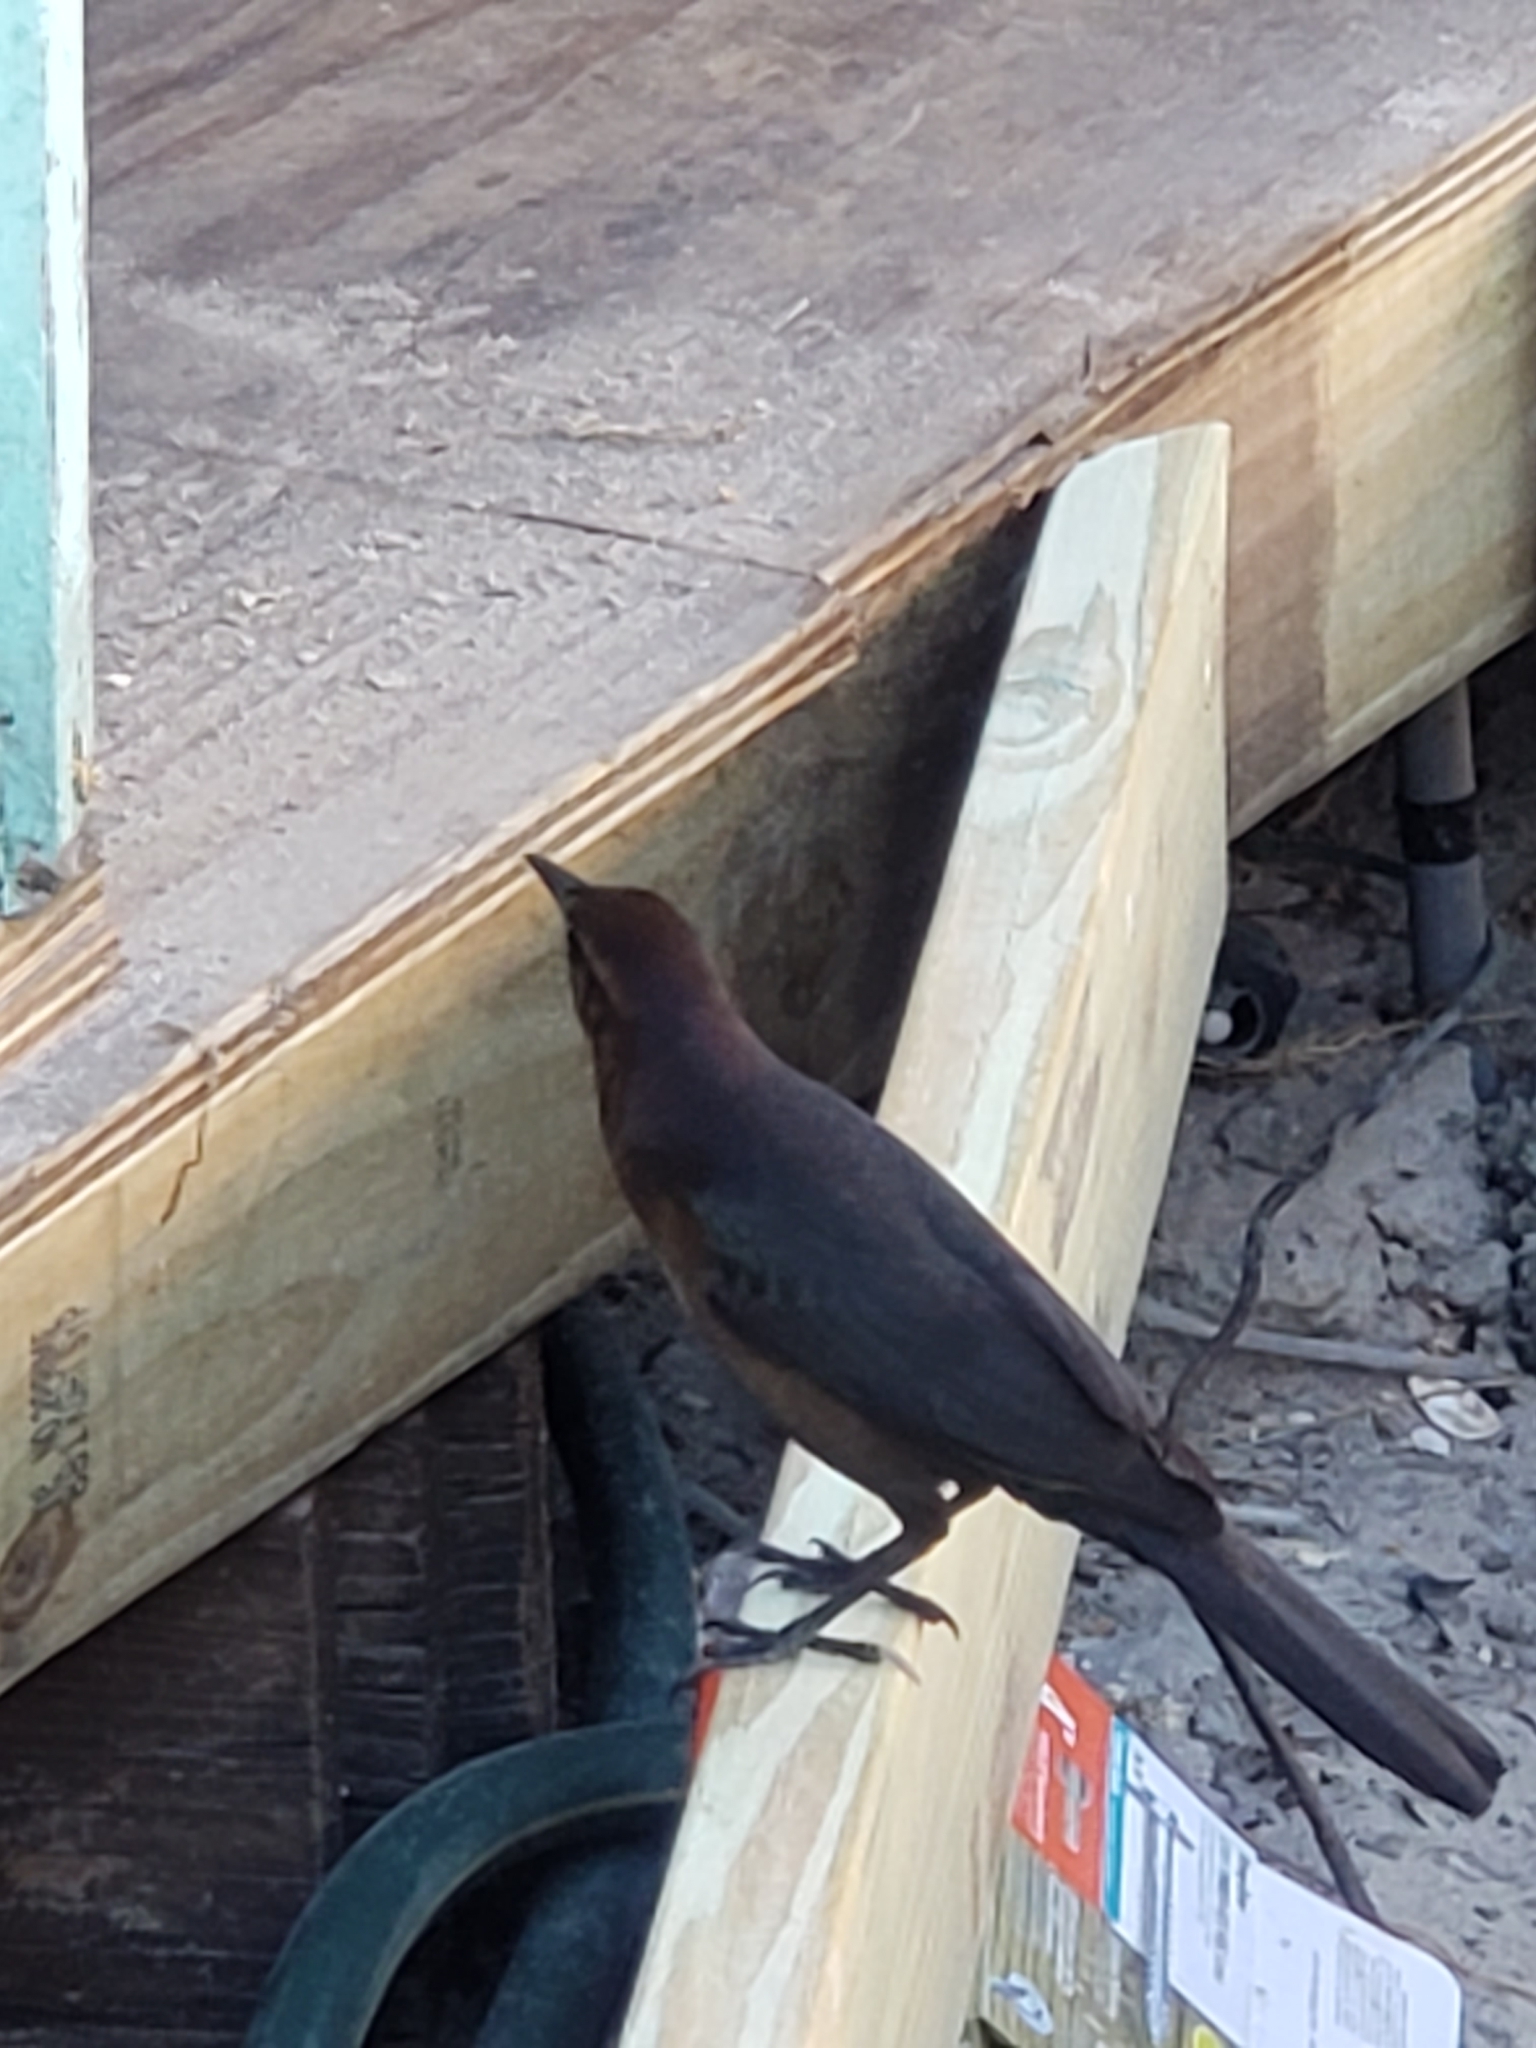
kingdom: Animalia
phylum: Chordata
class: Aves
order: Passeriformes
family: Icteridae
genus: Quiscalus
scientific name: Quiscalus major
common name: Boat-tailed grackle
